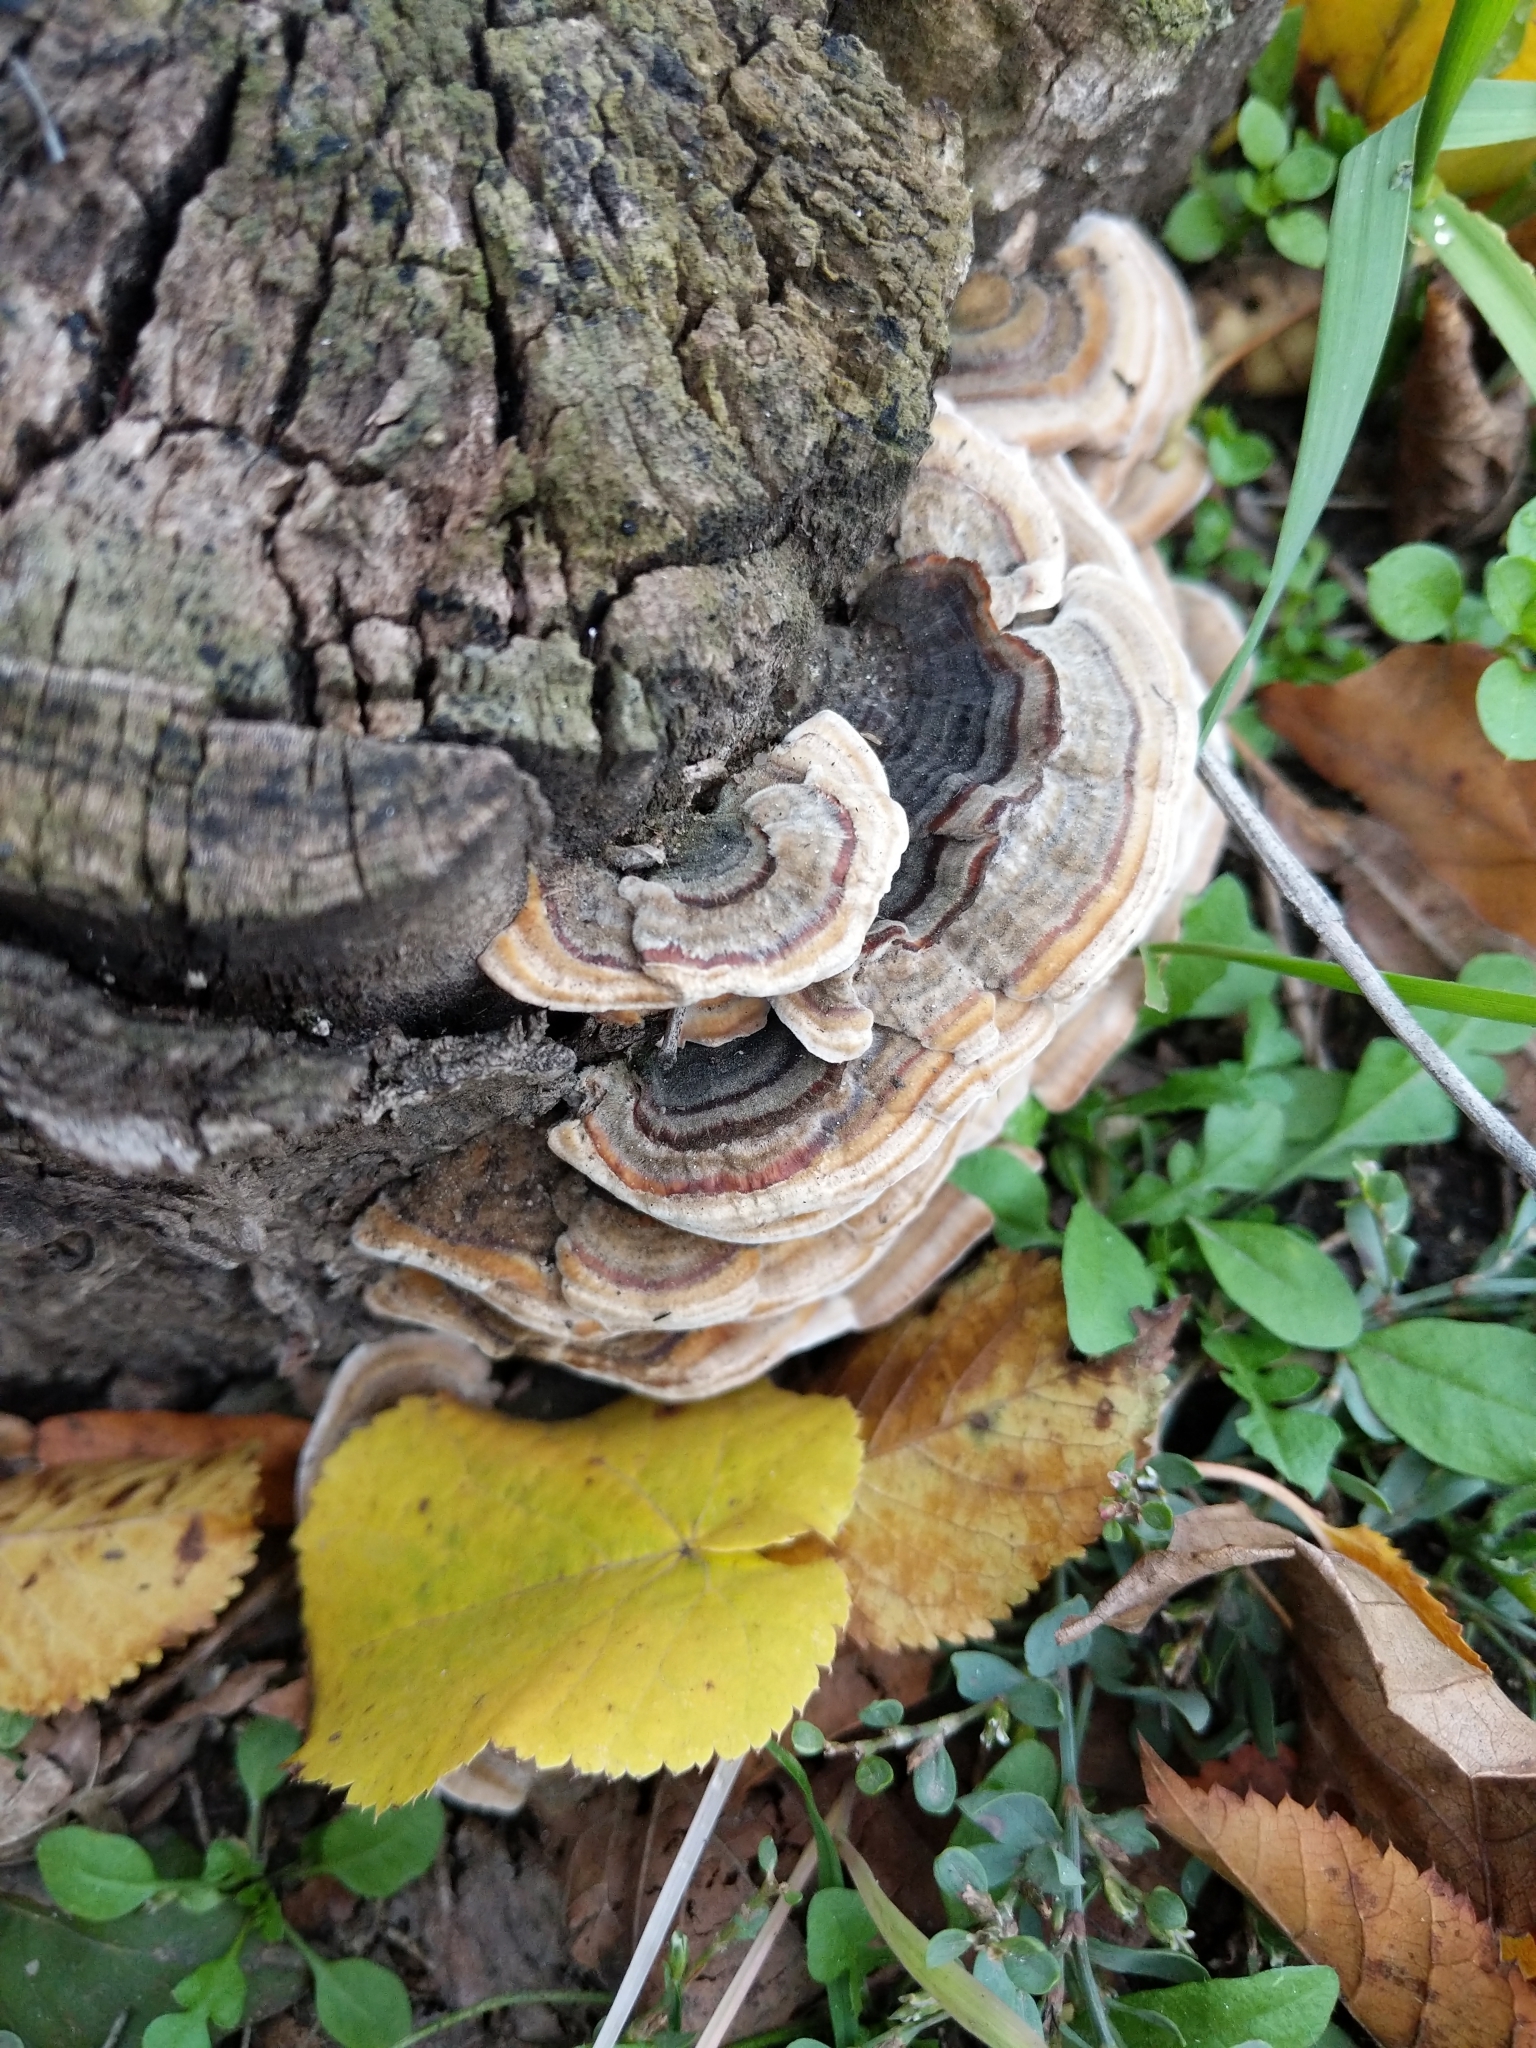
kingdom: Fungi
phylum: Basidiomycota
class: Agaricomycetes
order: Polyporales
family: Polyporaceae
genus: Trametes
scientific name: Trametes versicolor
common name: Turkeytail
